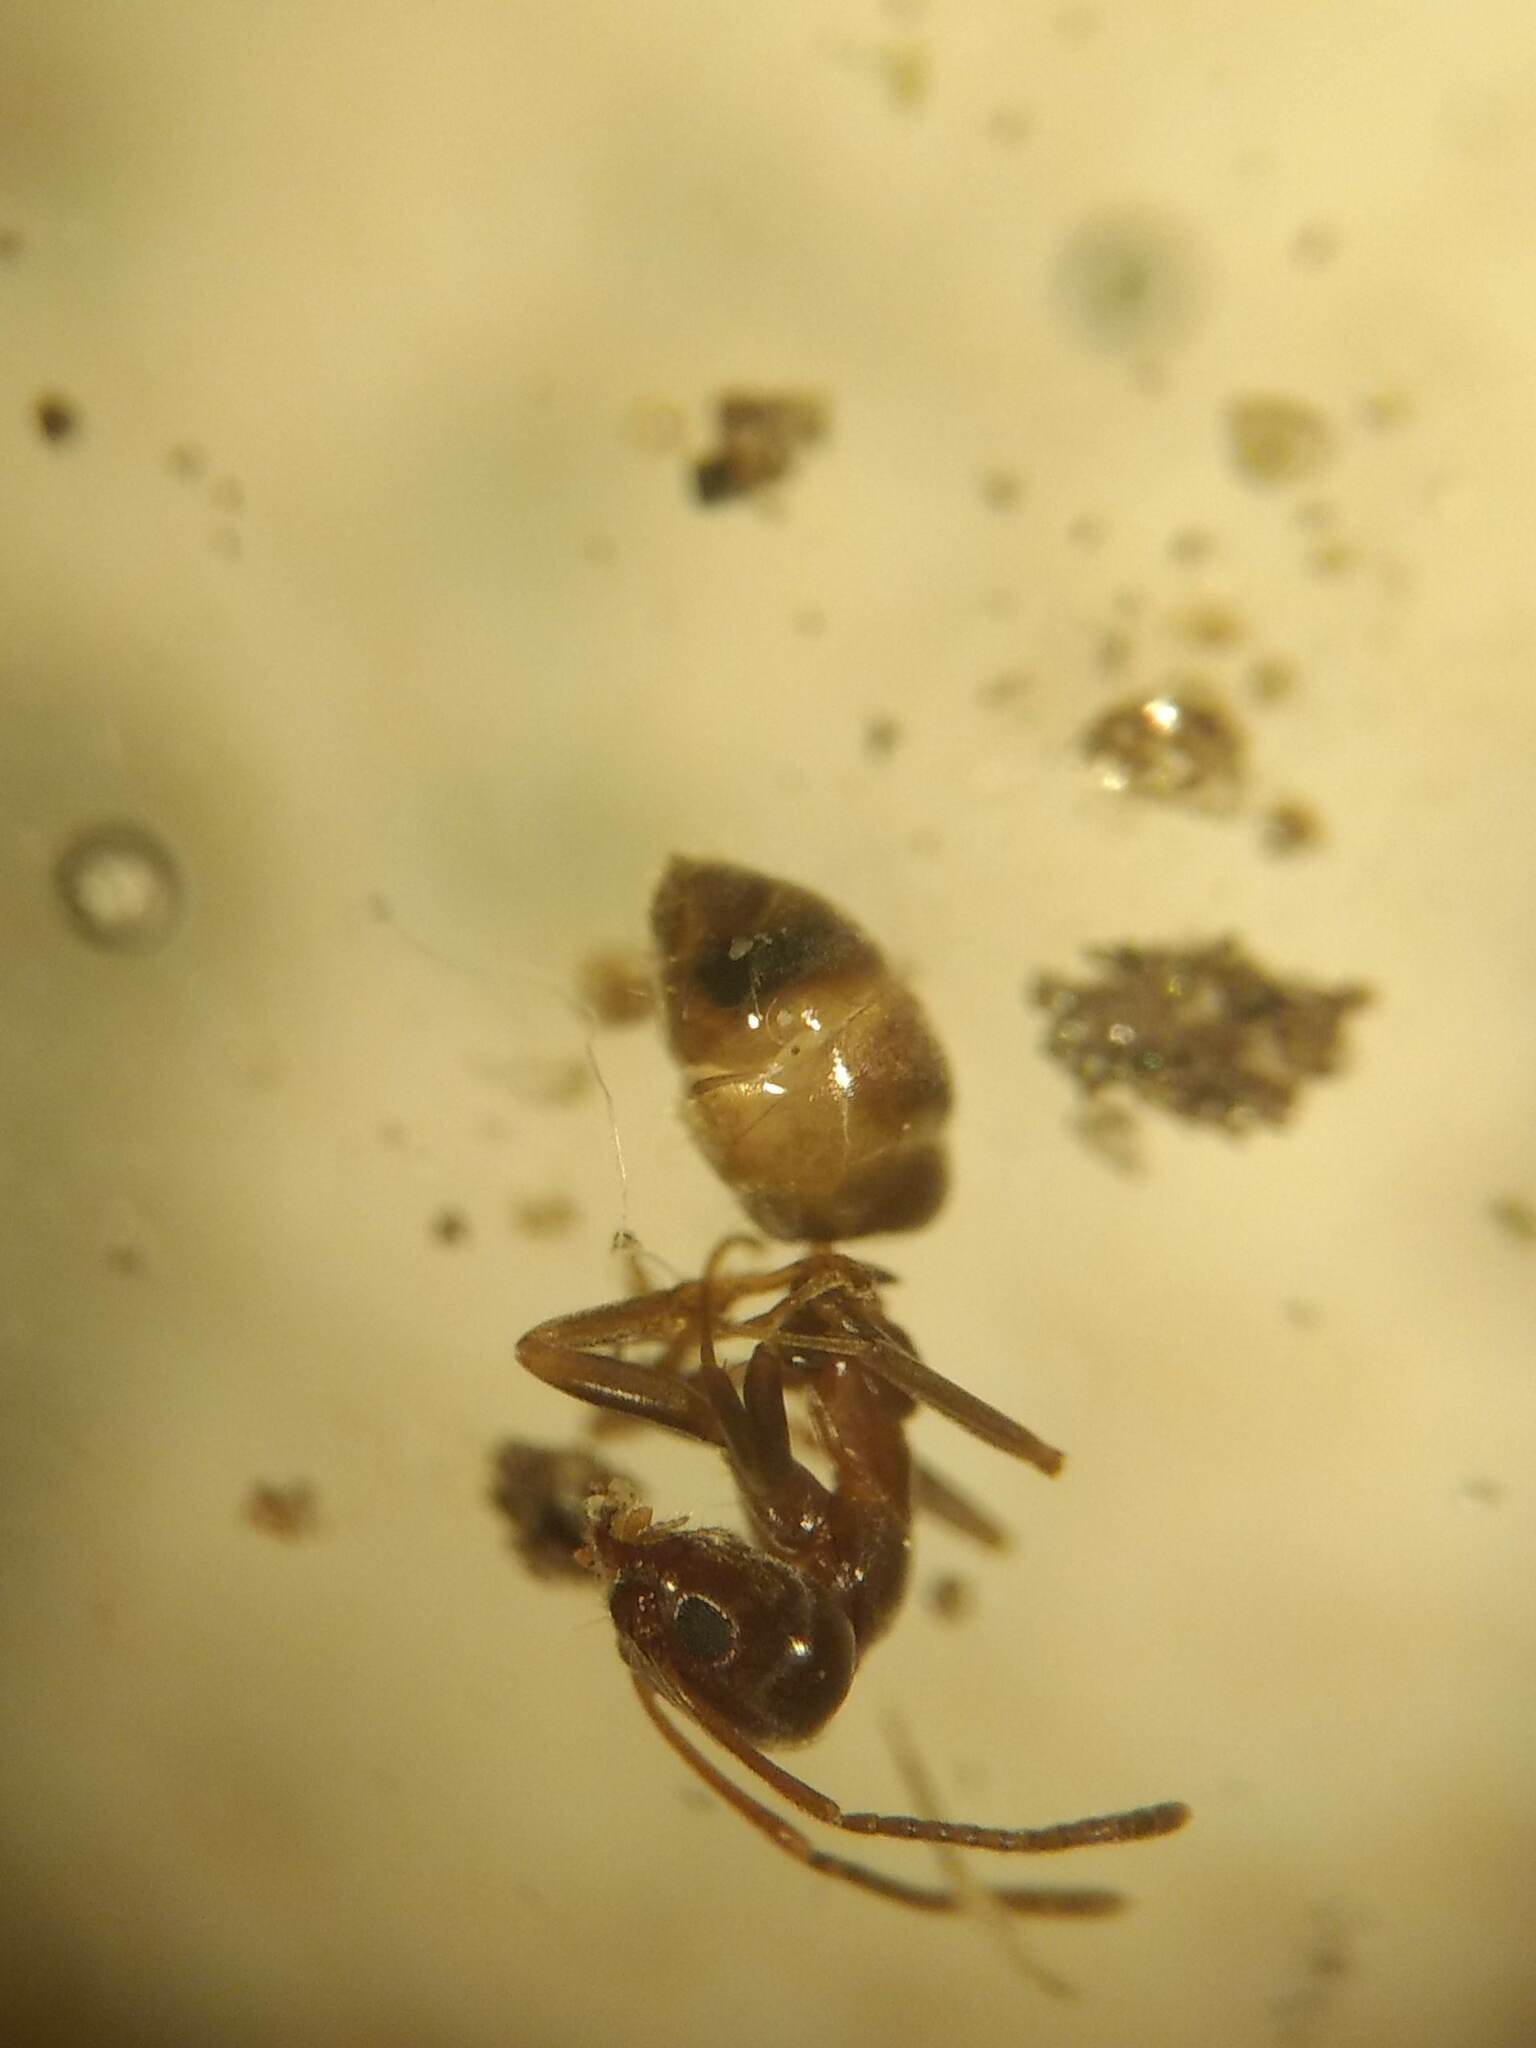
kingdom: Animalia
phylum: Arthropoda
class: Insecta
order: Hymenoptera
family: Formicidae
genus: Linepithema
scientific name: Linepithema humile
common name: Argentine ant
